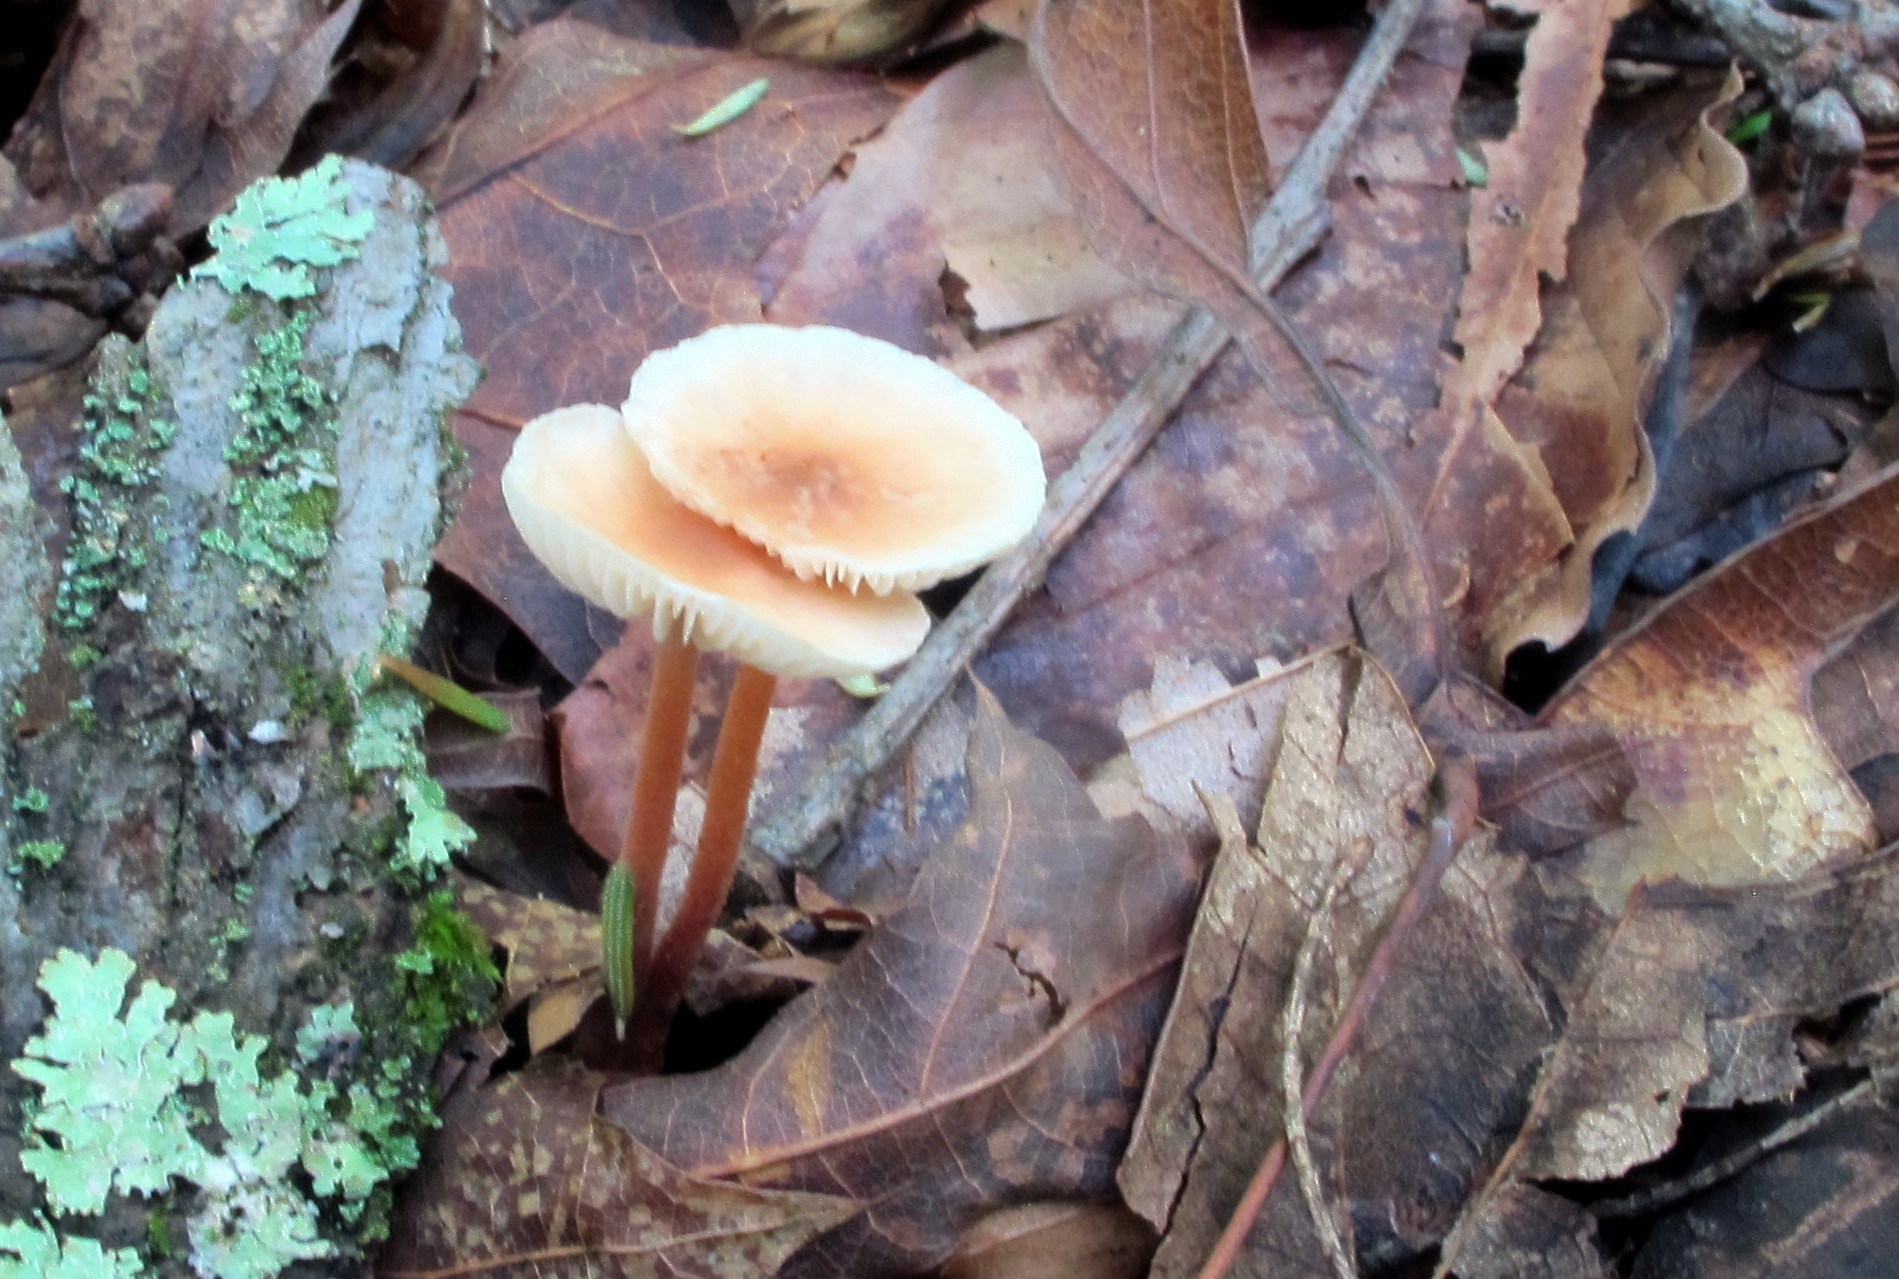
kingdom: Fungi
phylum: Basidiomycota
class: Agaricomycetes
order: Agaricales
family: Omphalotaceae
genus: Gymnopus
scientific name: Gymnopus semihirtipes
